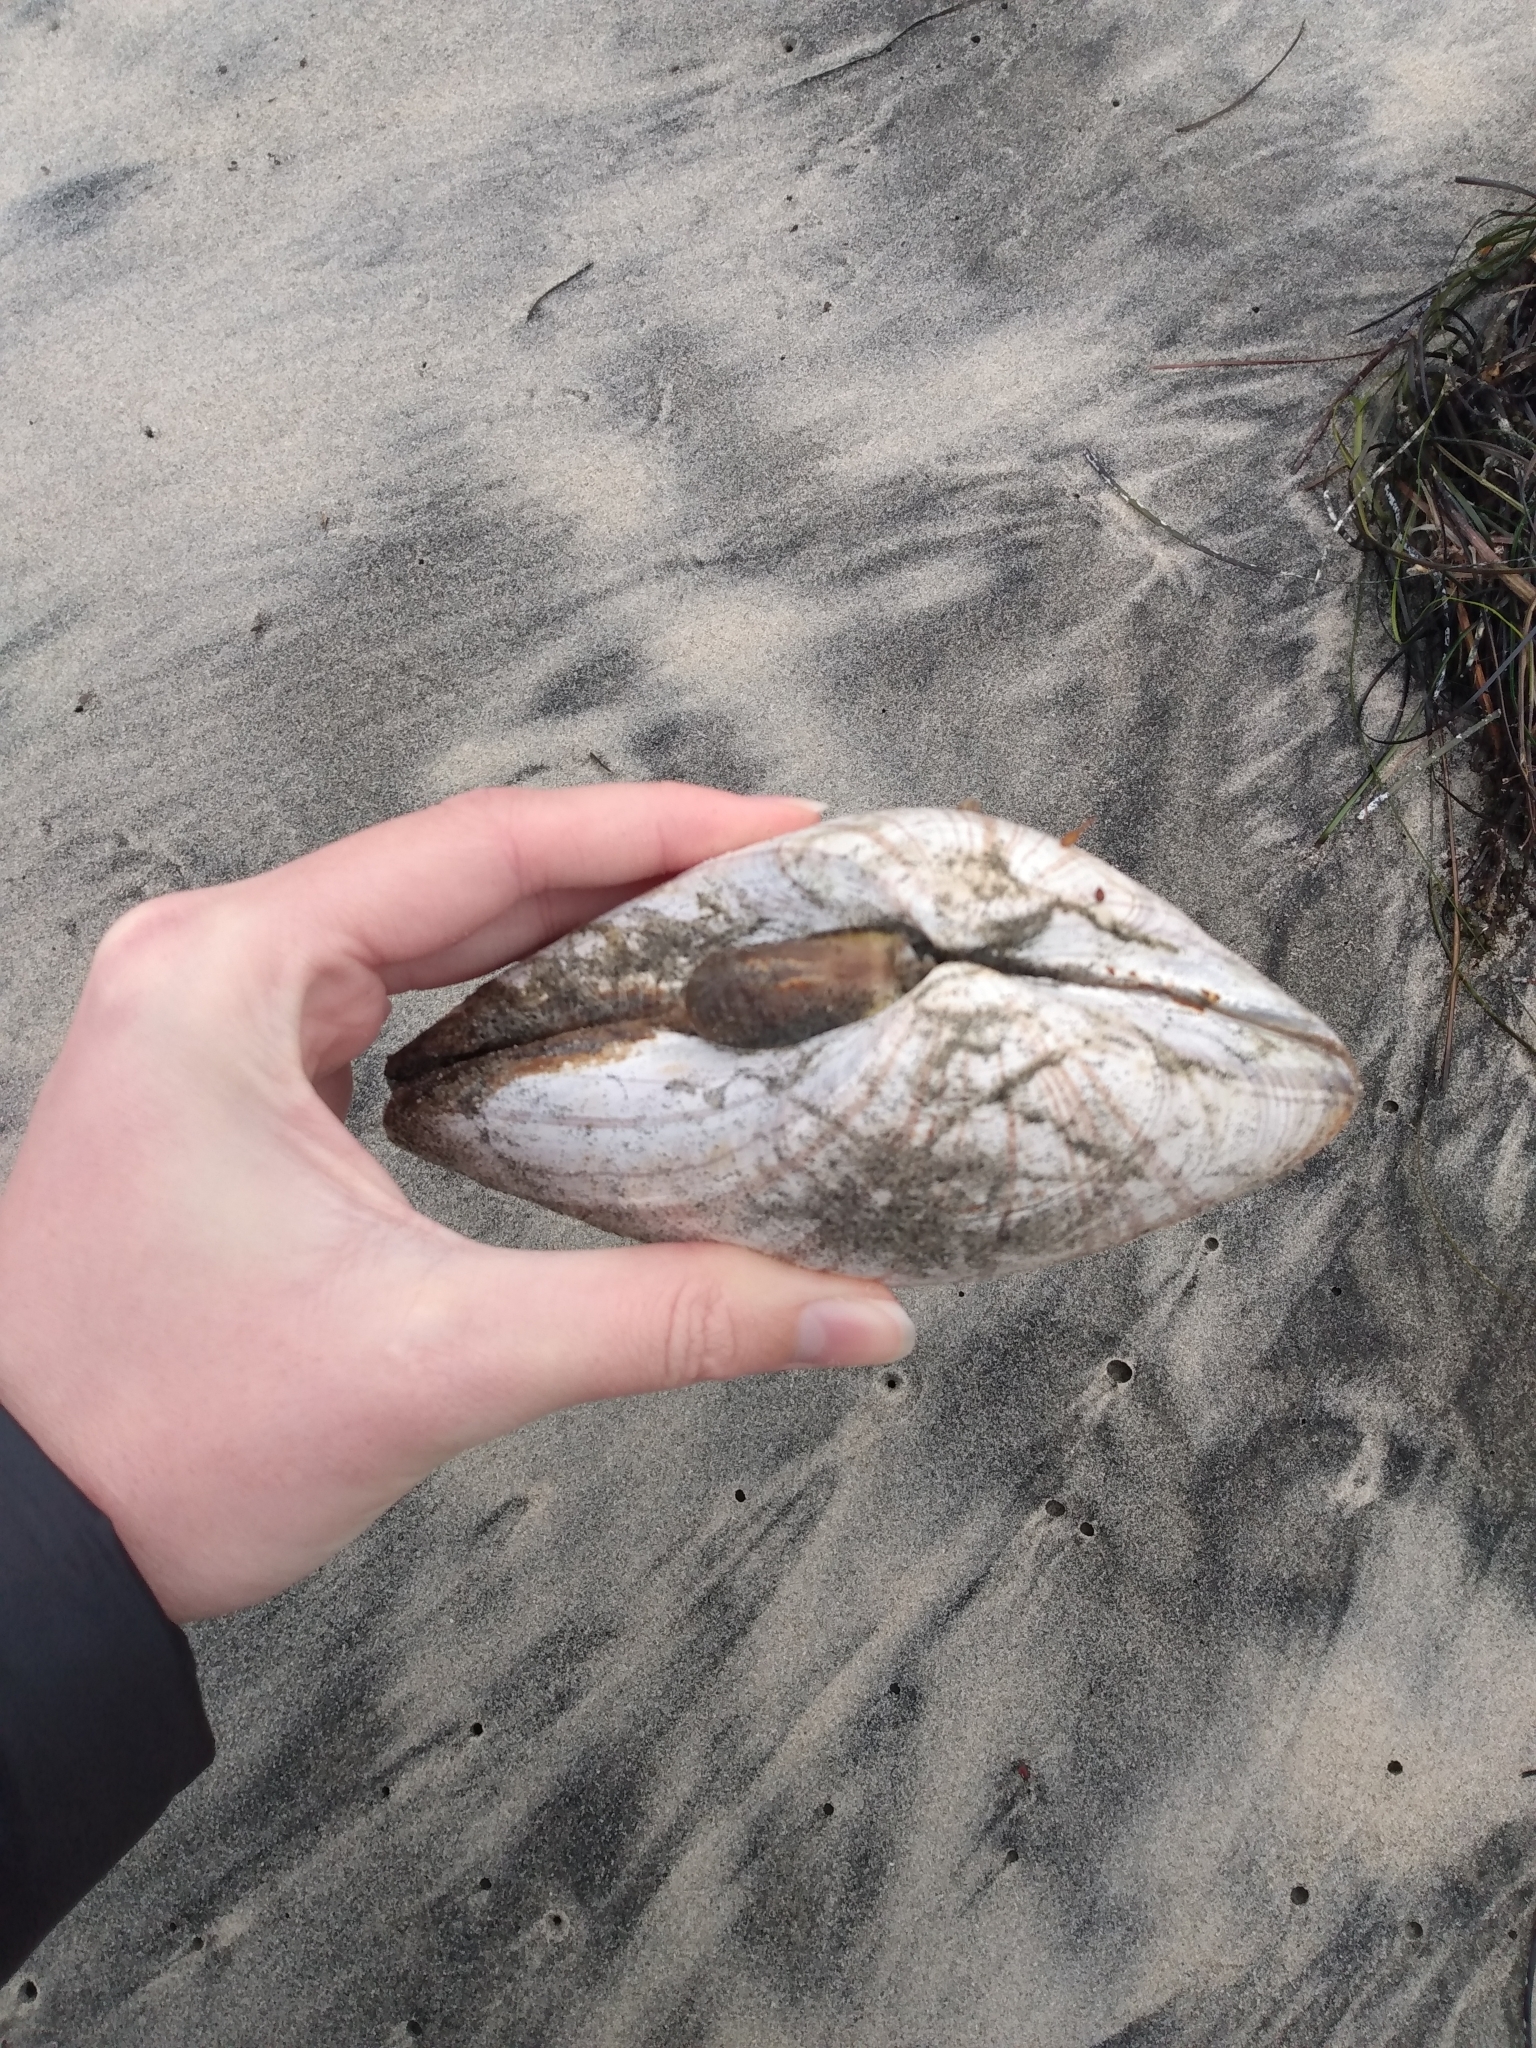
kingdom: Animalia
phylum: Mollusca
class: Bivalvia
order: Venerida
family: Veneridae
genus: Tivela
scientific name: Tivela stultorum
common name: Pismo clam
